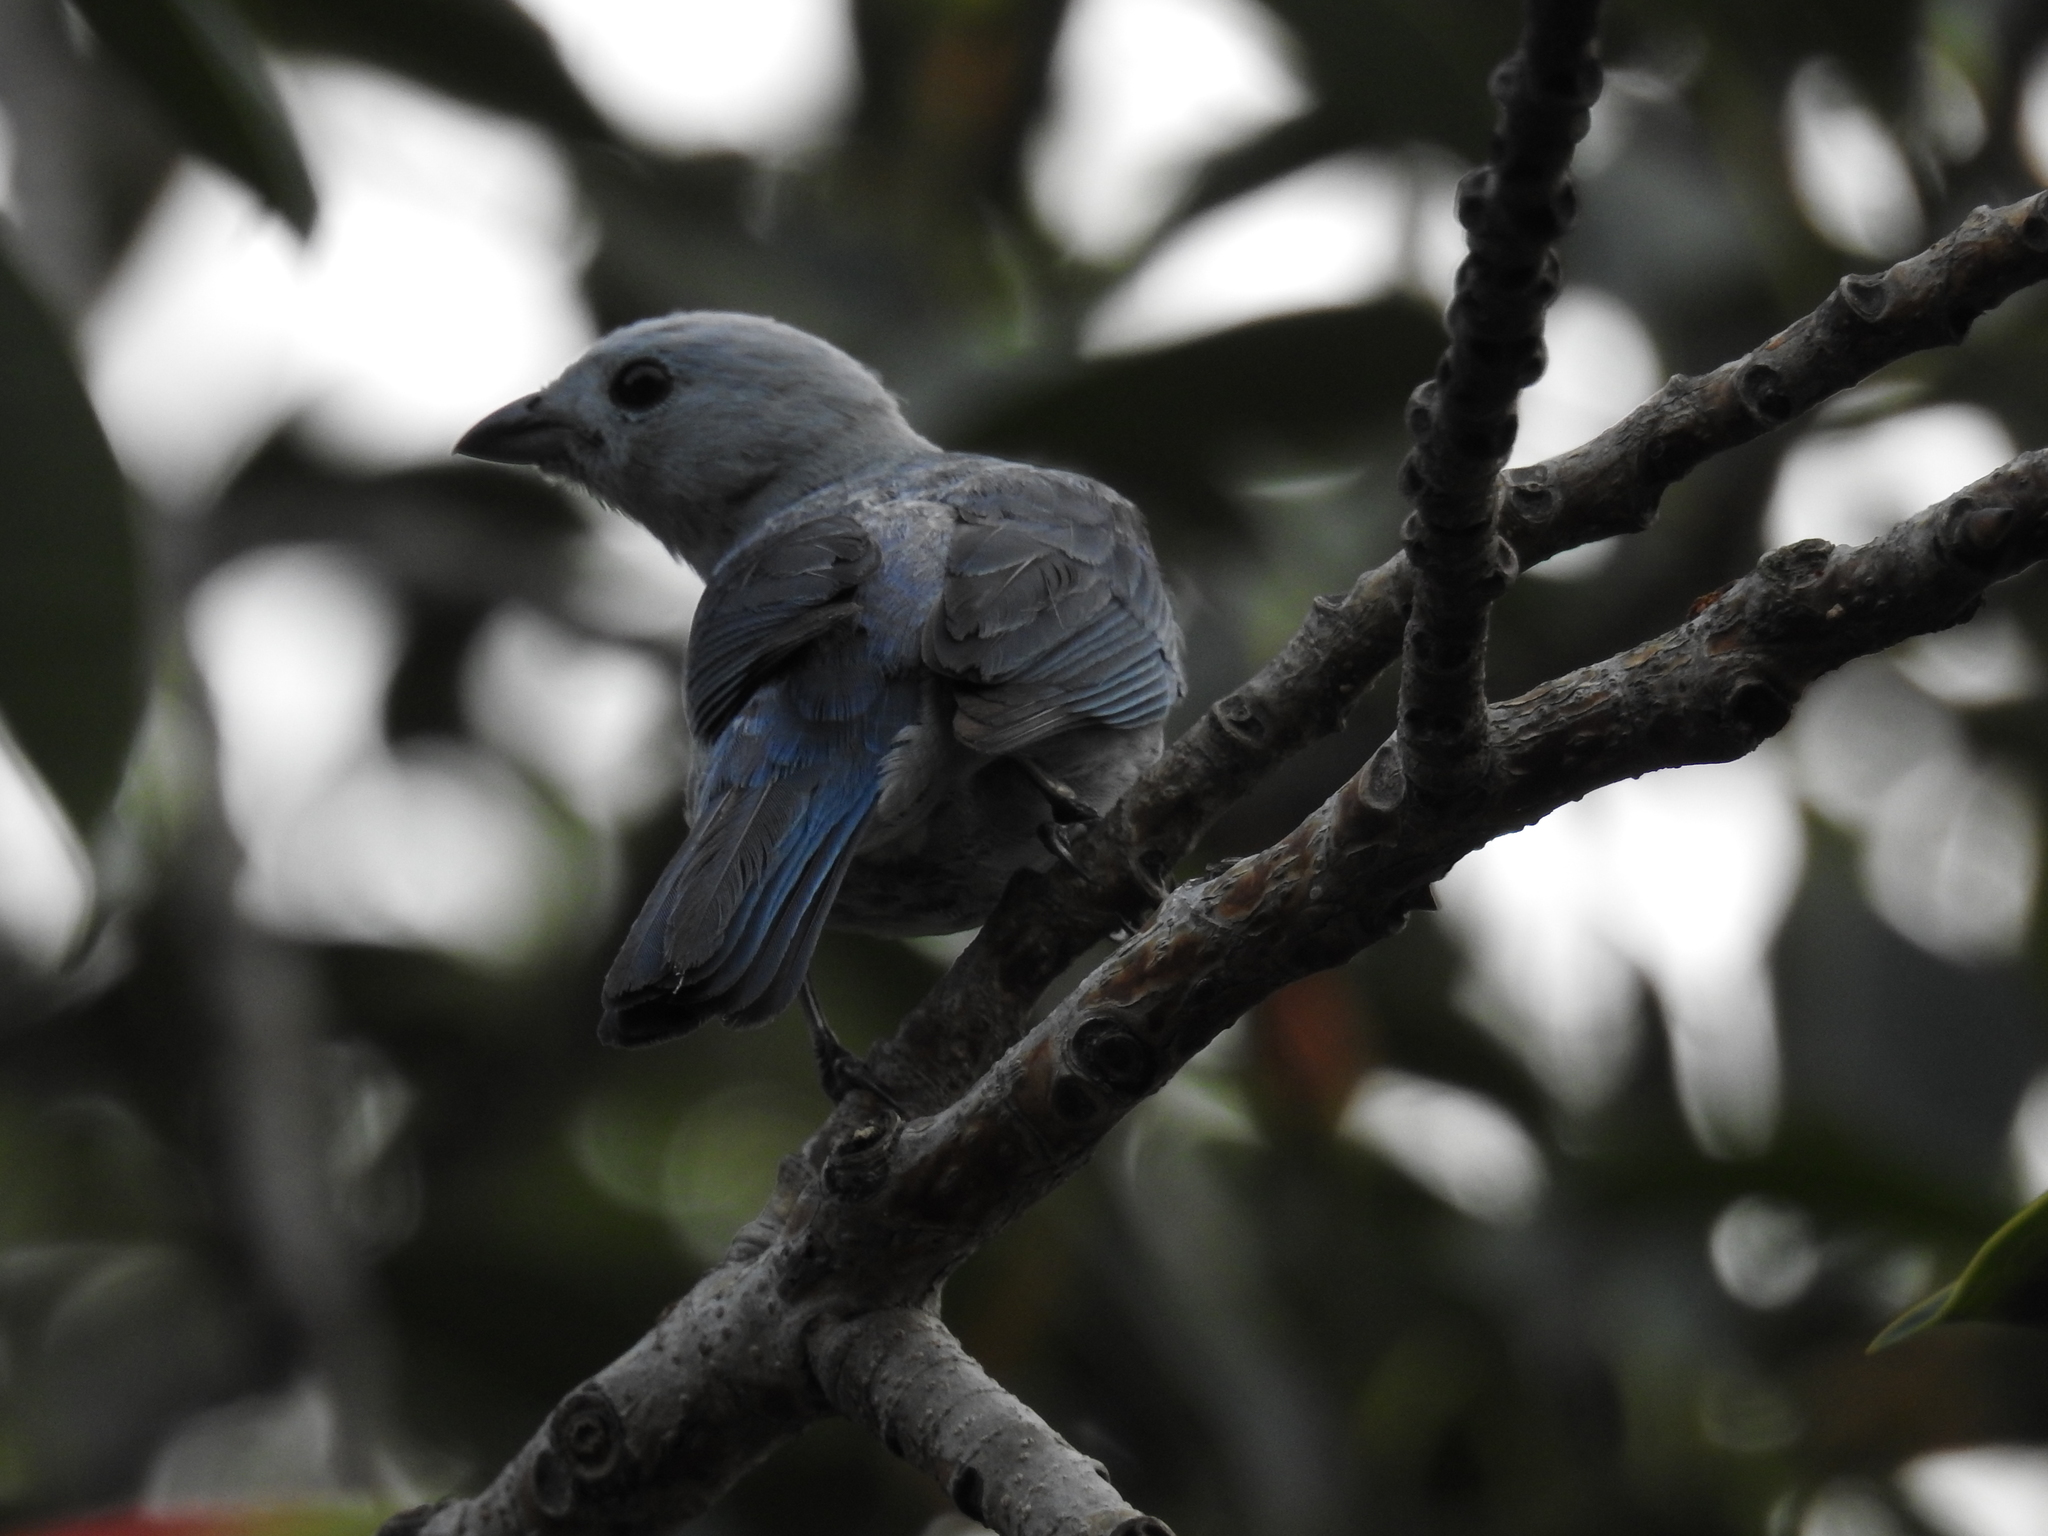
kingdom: Animalia
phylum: Chordata
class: Aves
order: Passeriformes
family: Thraupidae
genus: Thraupis
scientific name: Thraupis episcopus
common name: Blue-grey tanager
